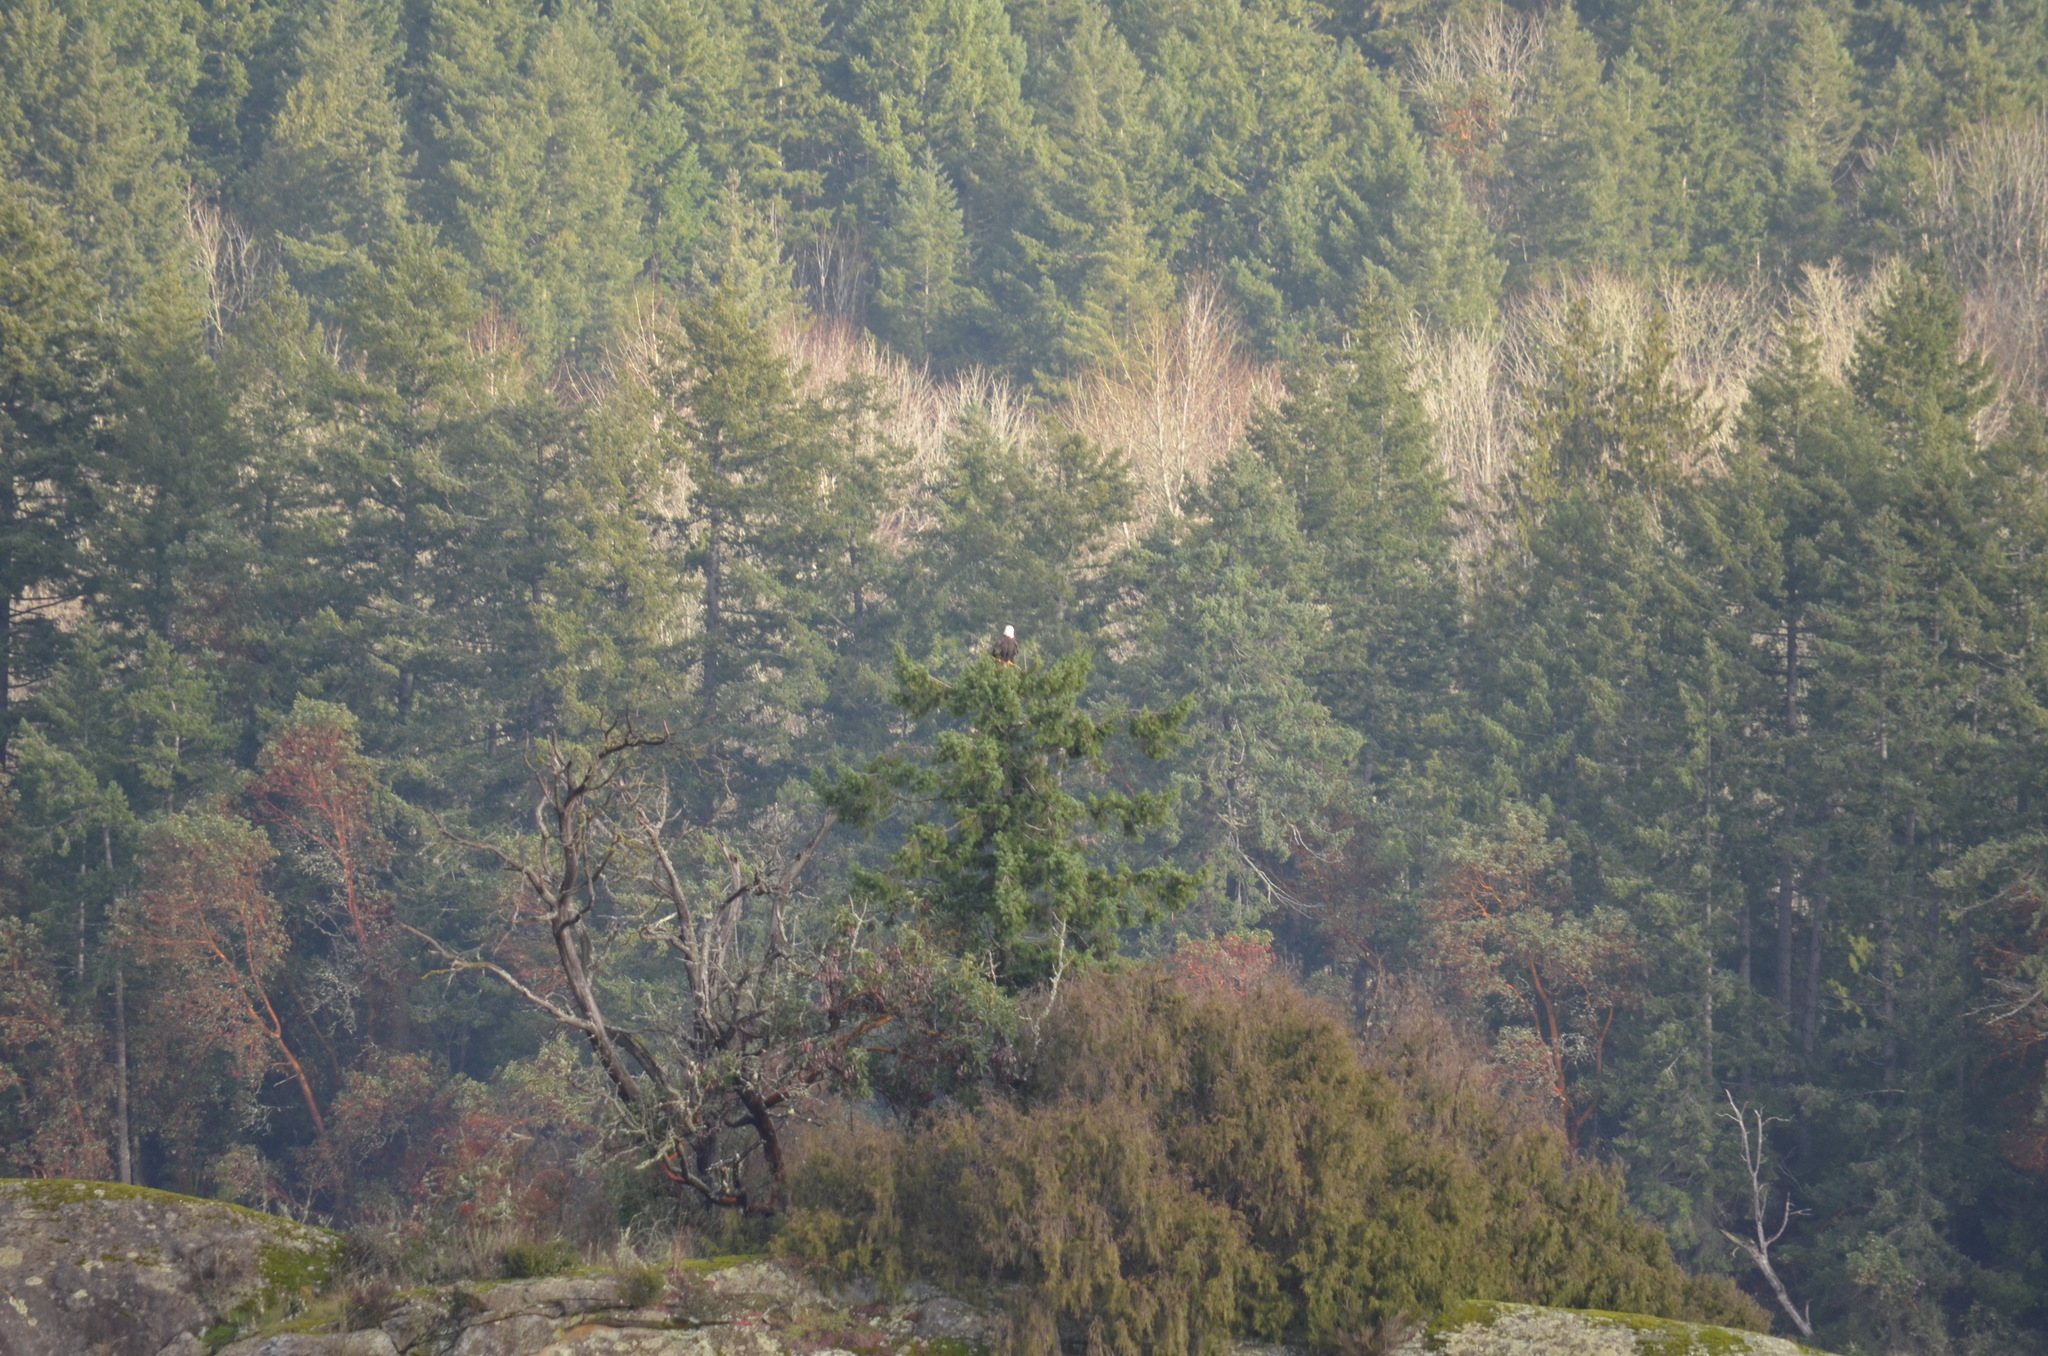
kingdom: Animalia
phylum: Chordata
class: Aves
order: Accipitriformes
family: Accipitridae
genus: Haliaeetus
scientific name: Haliaeetus leucocephalus
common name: Bald eagle
